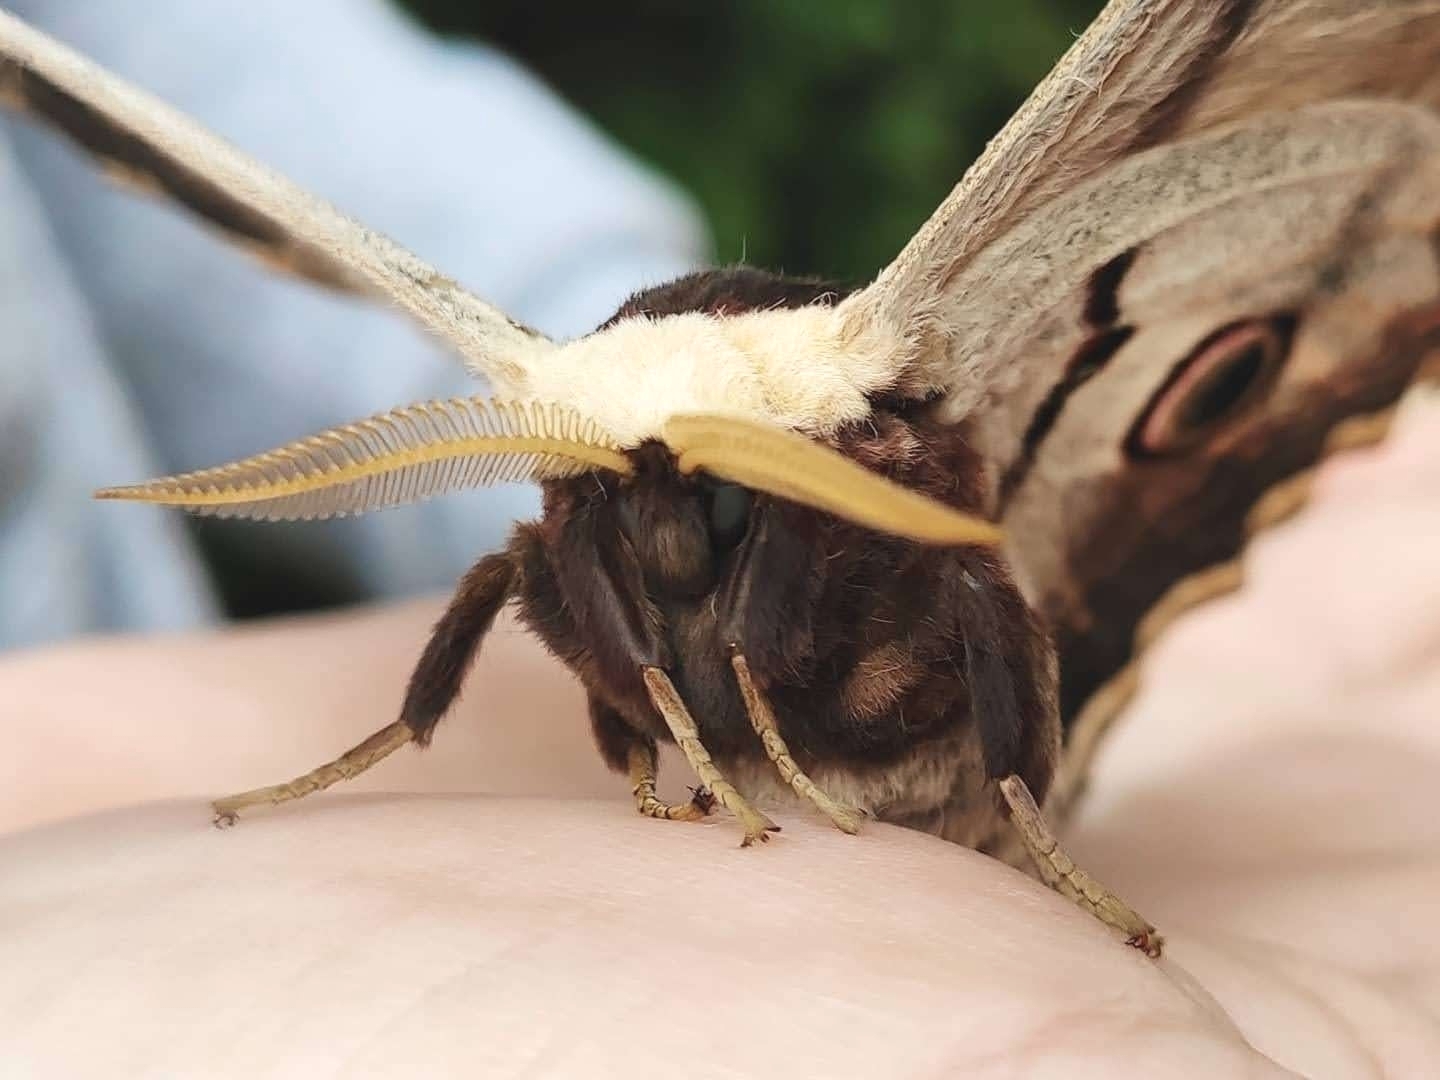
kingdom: Animalia
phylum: Arthropoda
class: Insecta
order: Lepidoptera
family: Saturniidae
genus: Saturnia
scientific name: Saturnia pyri
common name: Great peacock moth
